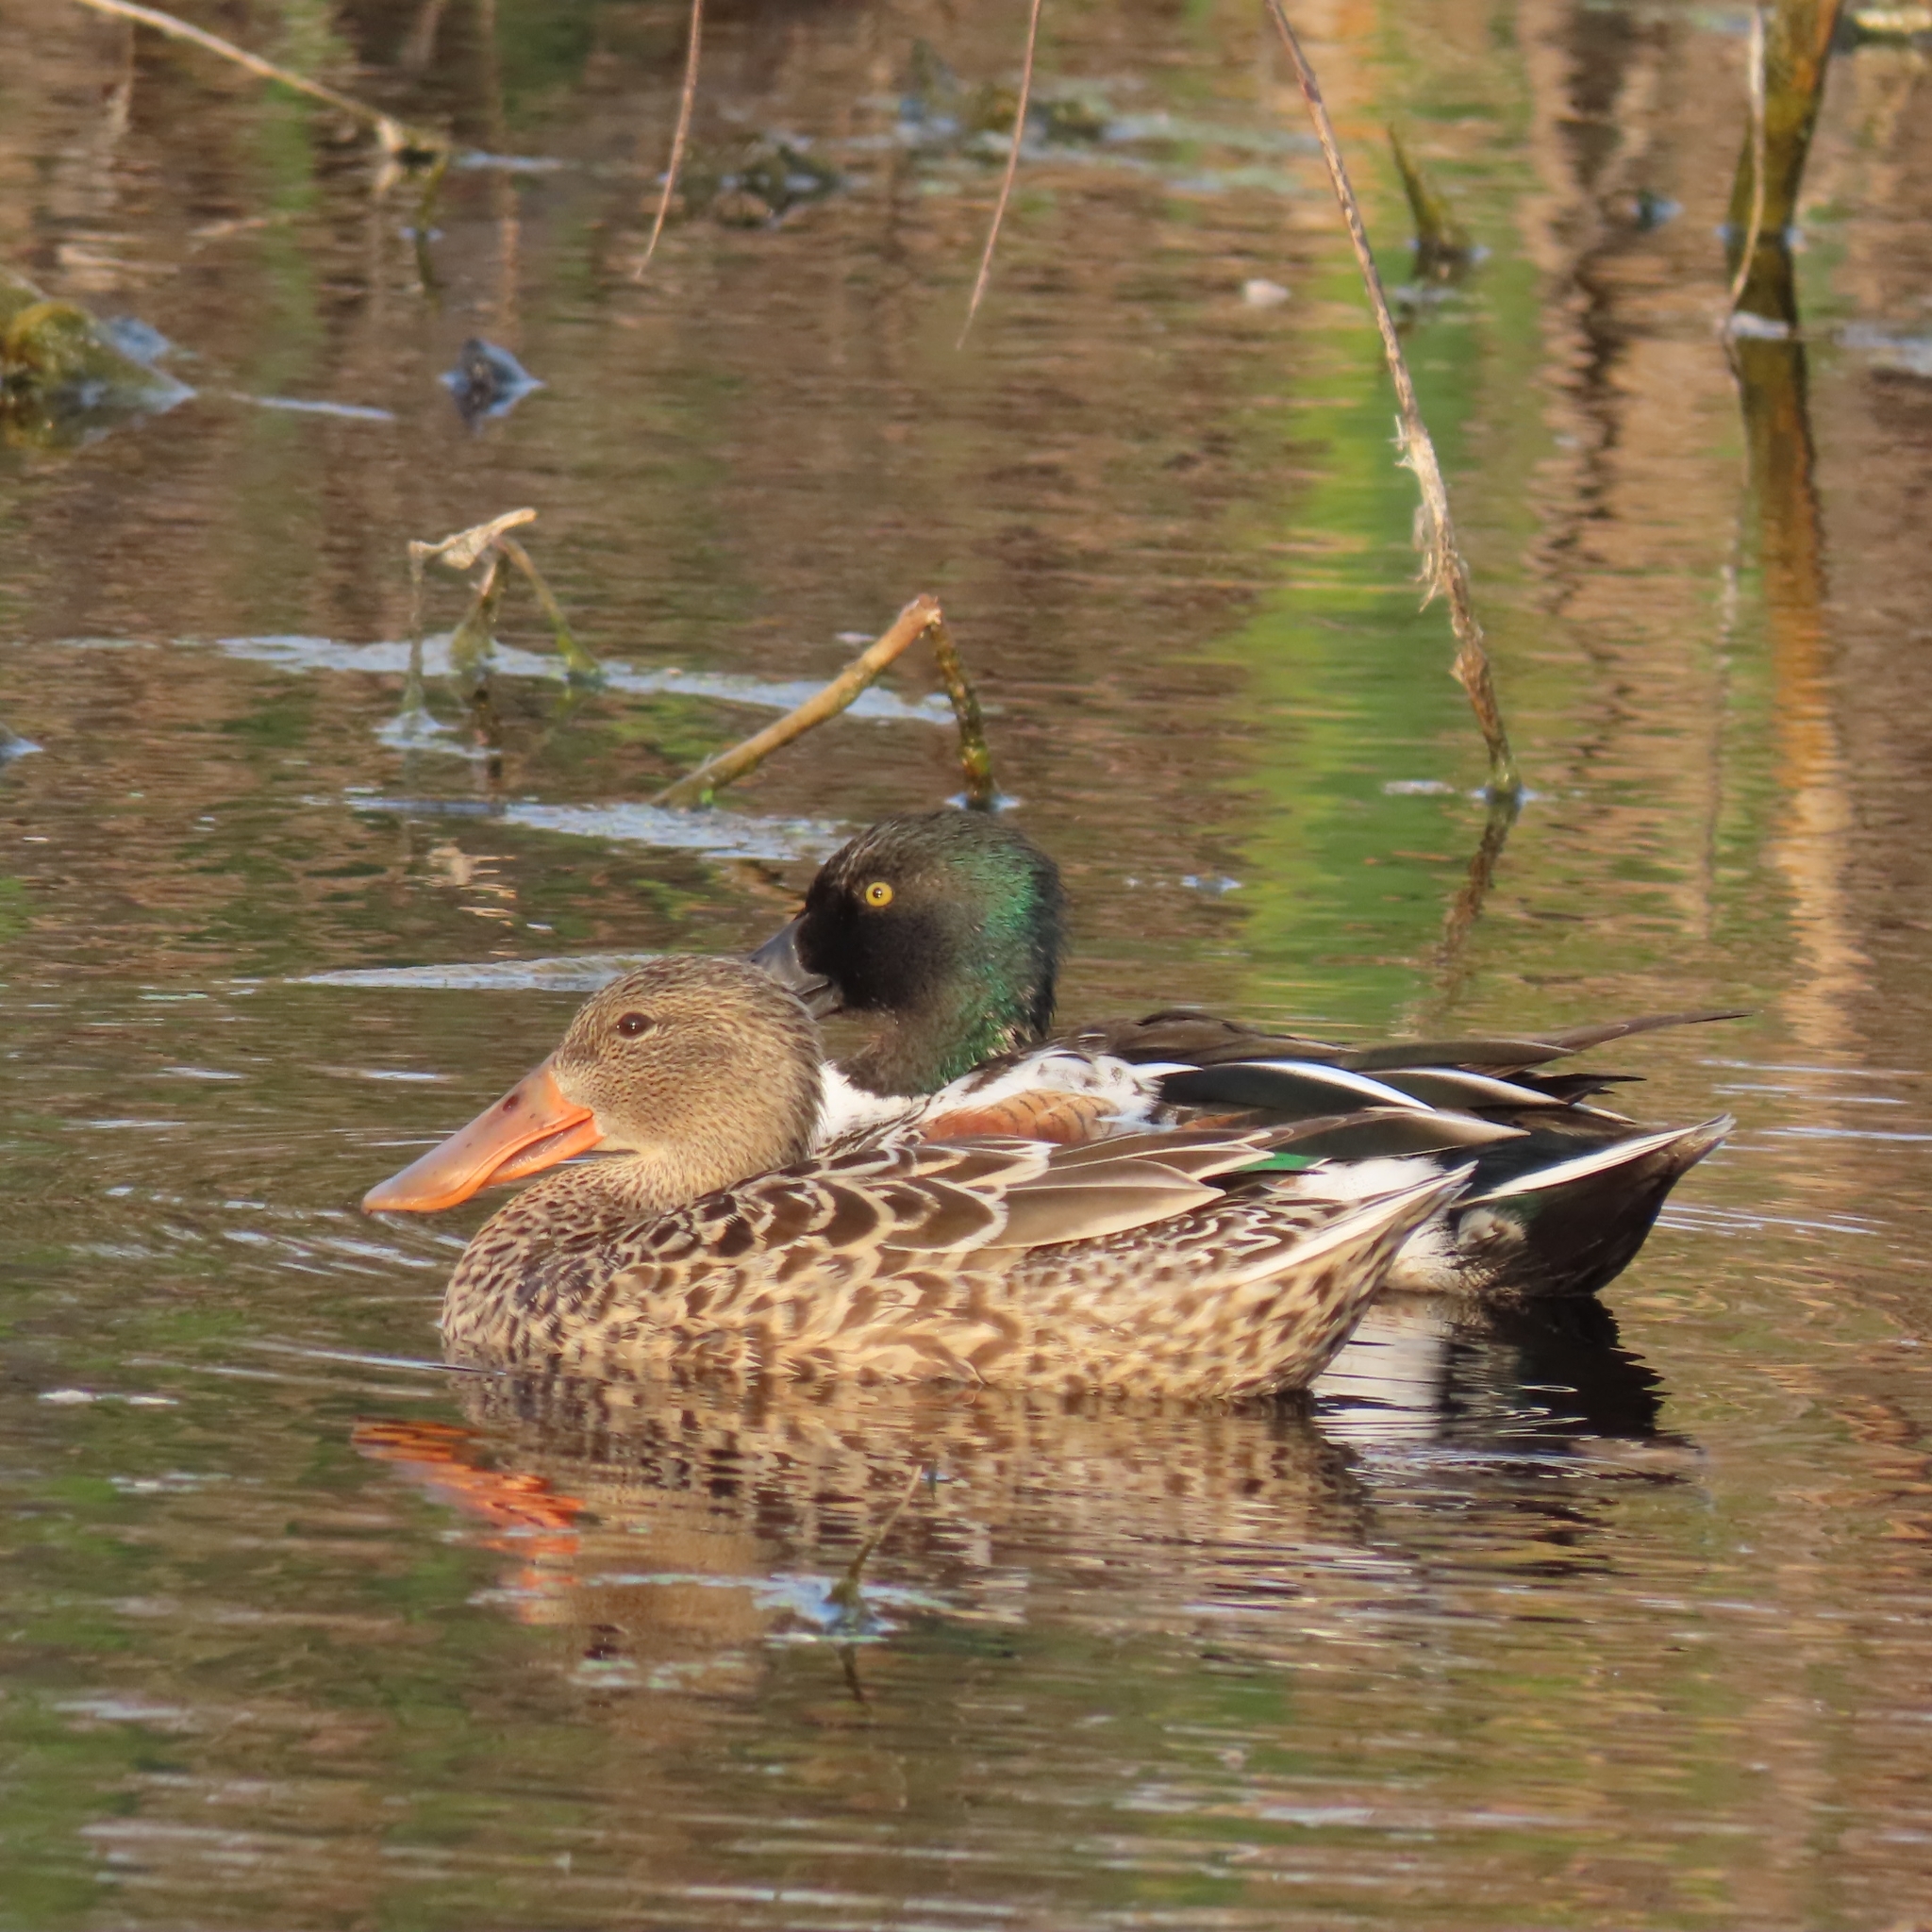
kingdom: Animalia
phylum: Chordata
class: Aves
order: Anseriformes
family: Anatidae
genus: Spatula
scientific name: Spatula clypeata
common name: Northern shoveler
